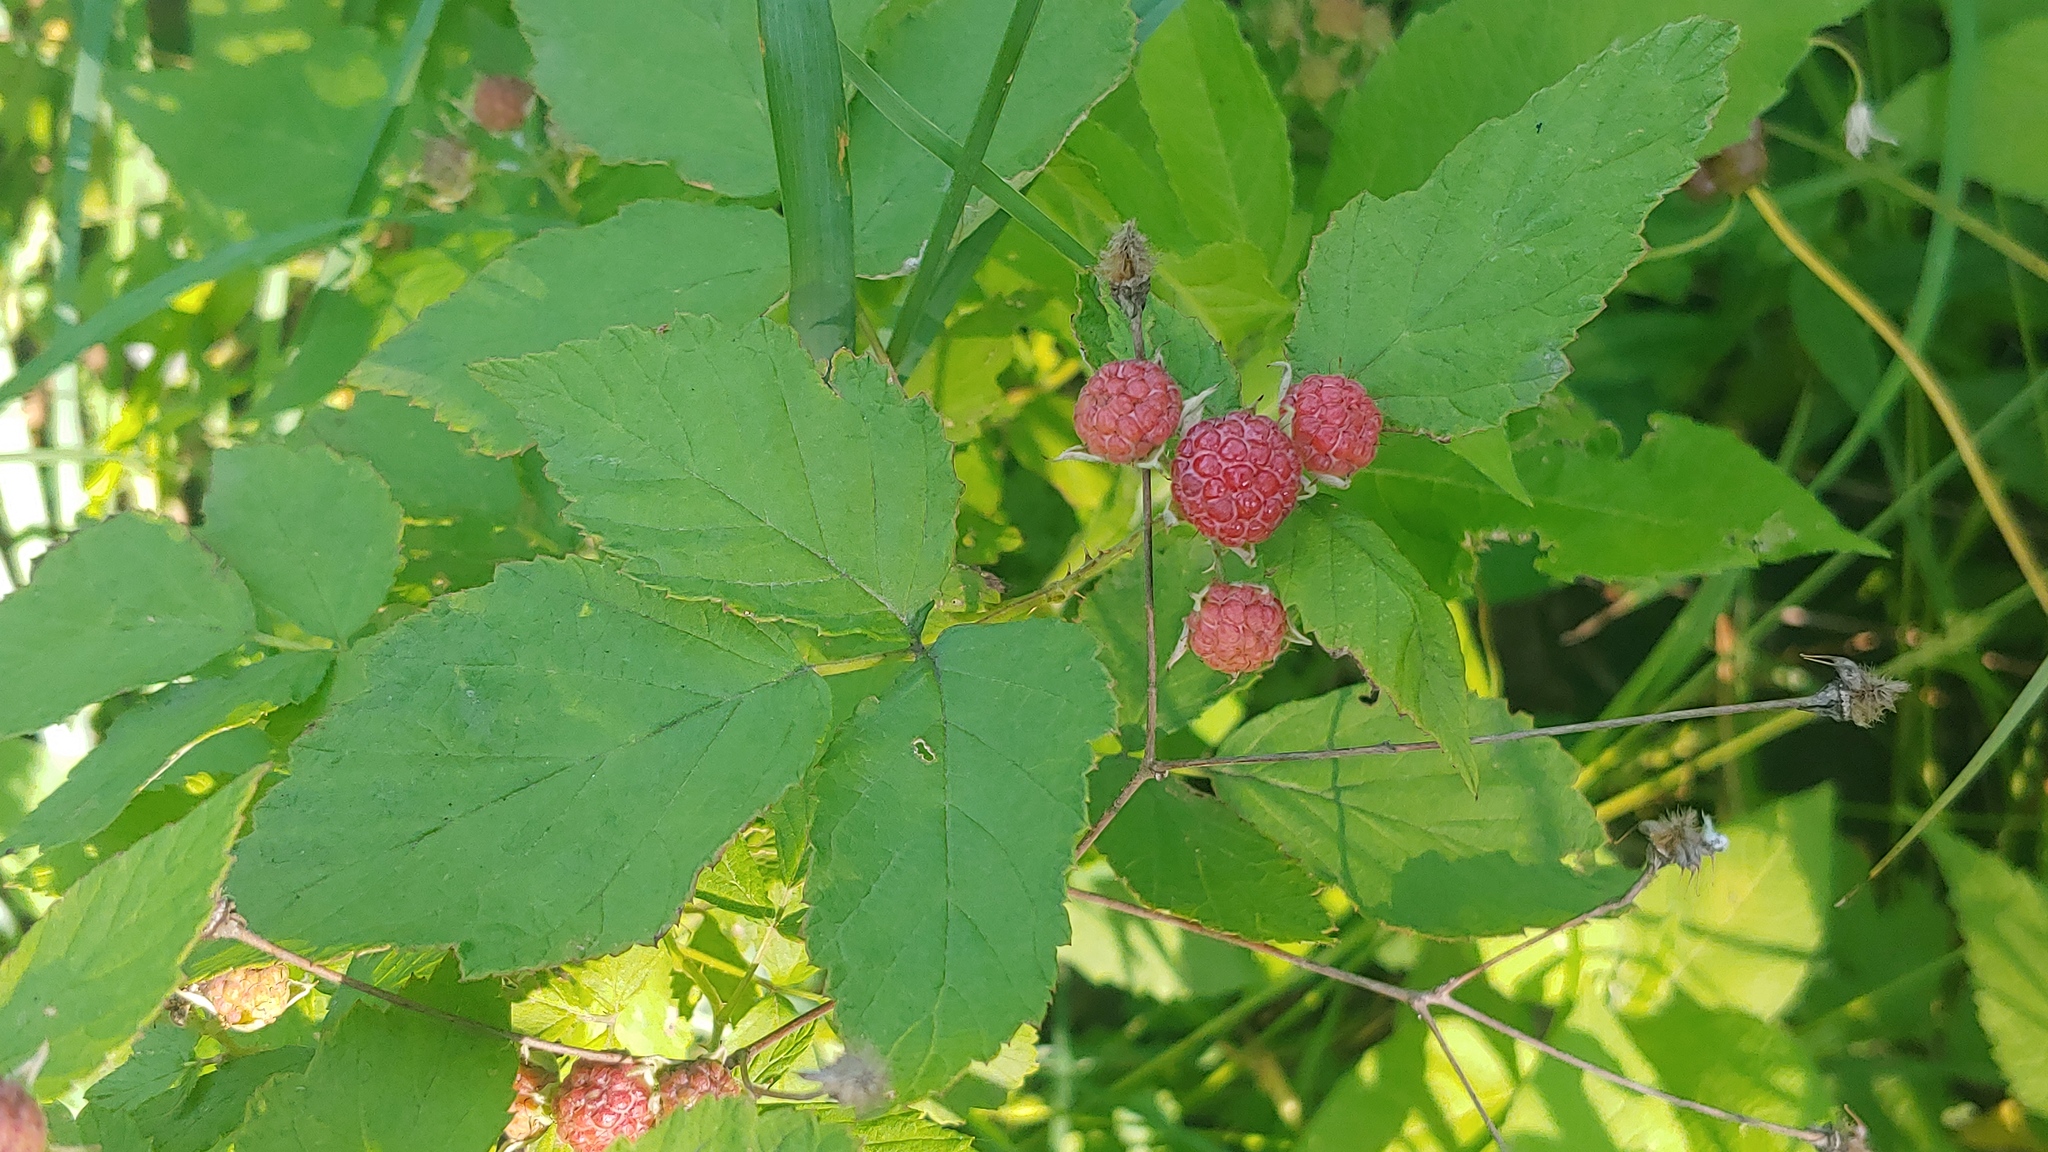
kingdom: Plantae
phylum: Tracheophyta
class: Magnoliopsida
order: Rosales
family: Rosaceae
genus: Rubus
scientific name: Rubus occidentalis
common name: Black raspberry
